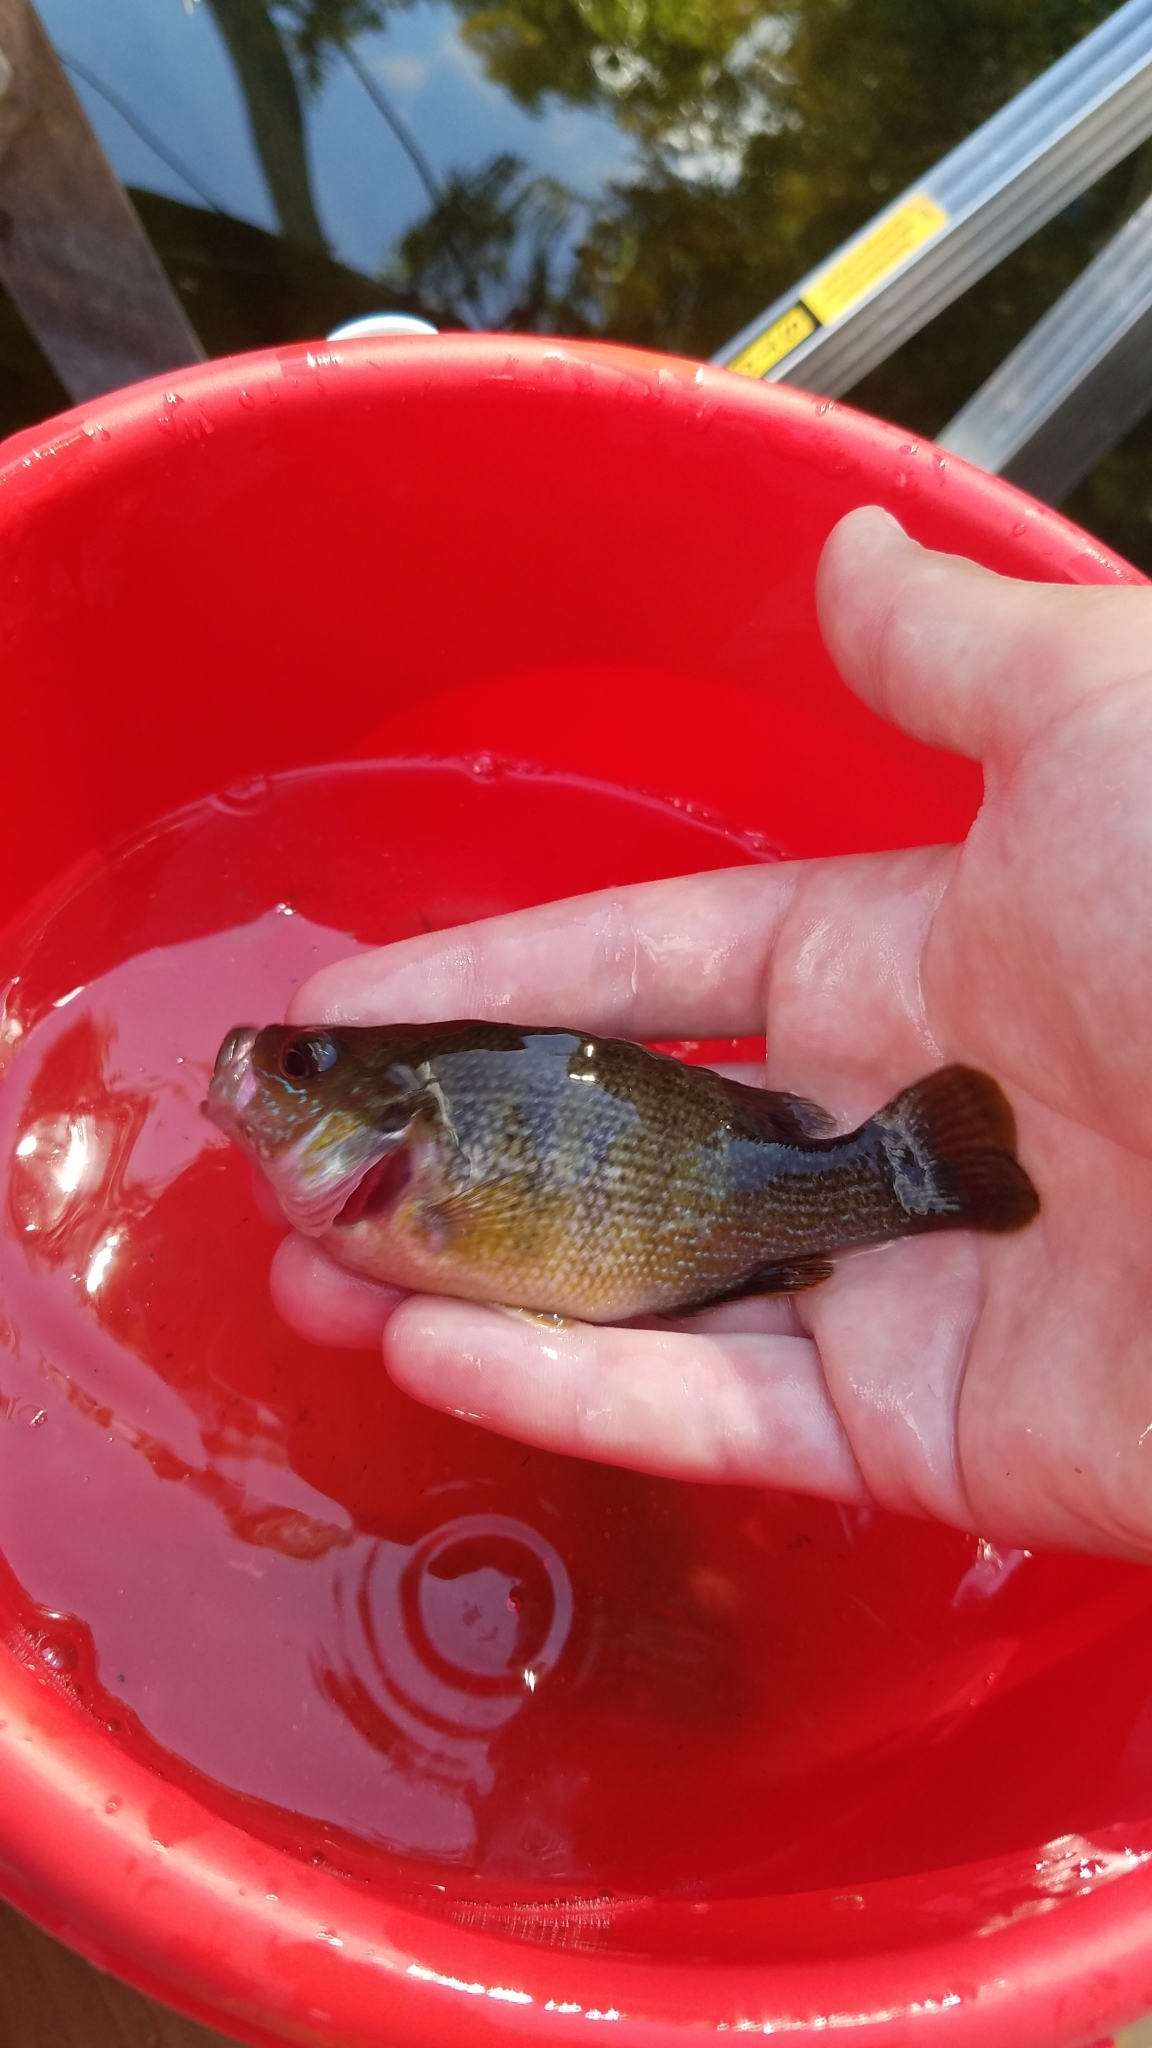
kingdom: Animalia
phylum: Chordata
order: Perciformes
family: Centrarchidae
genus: Lepomis
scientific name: Lepomis cyanellus
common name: Green sunfish
